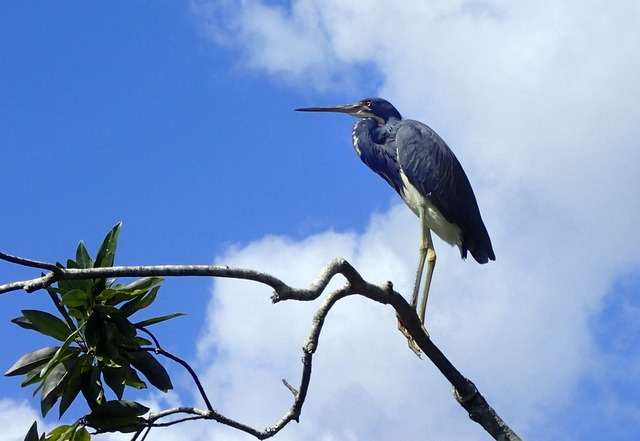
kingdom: Animalia
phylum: Chordata
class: Aves
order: Pelecaniformes
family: Ardeidae
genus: Egretta
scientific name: Egretta tricolor
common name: Tricolored heron
